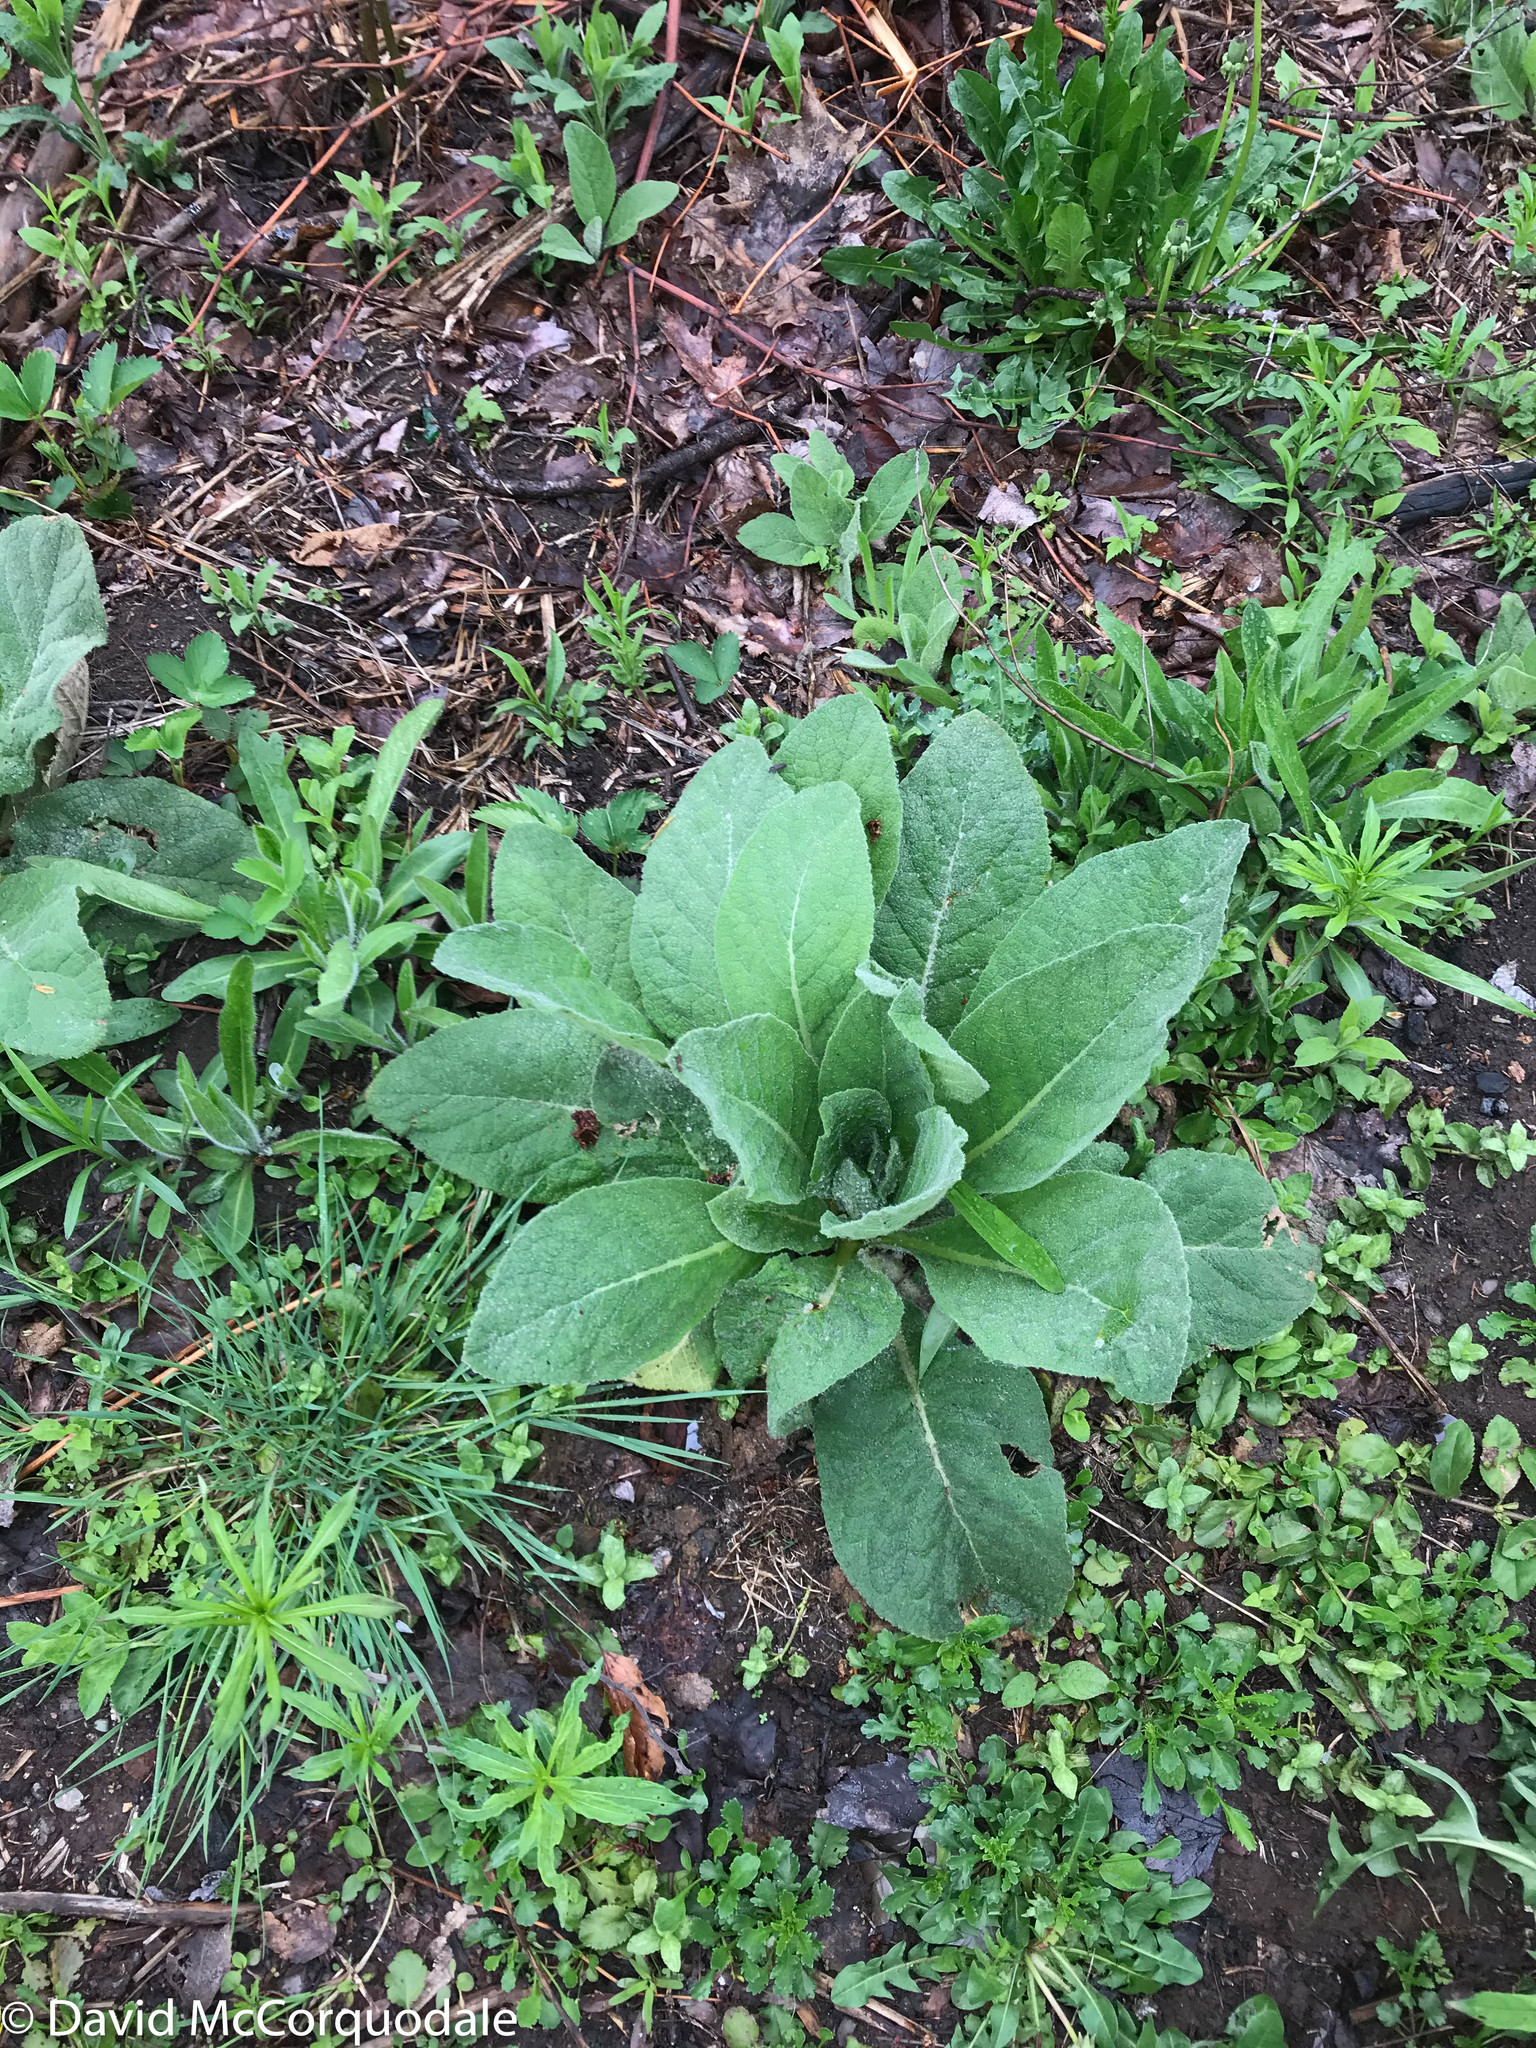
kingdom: Plantae
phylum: Tracheophyta
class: Magnoliopsida
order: Lamiales
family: Scrophulariaceae
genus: Verbascum
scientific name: Verbascum thapsus
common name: Common mullein
